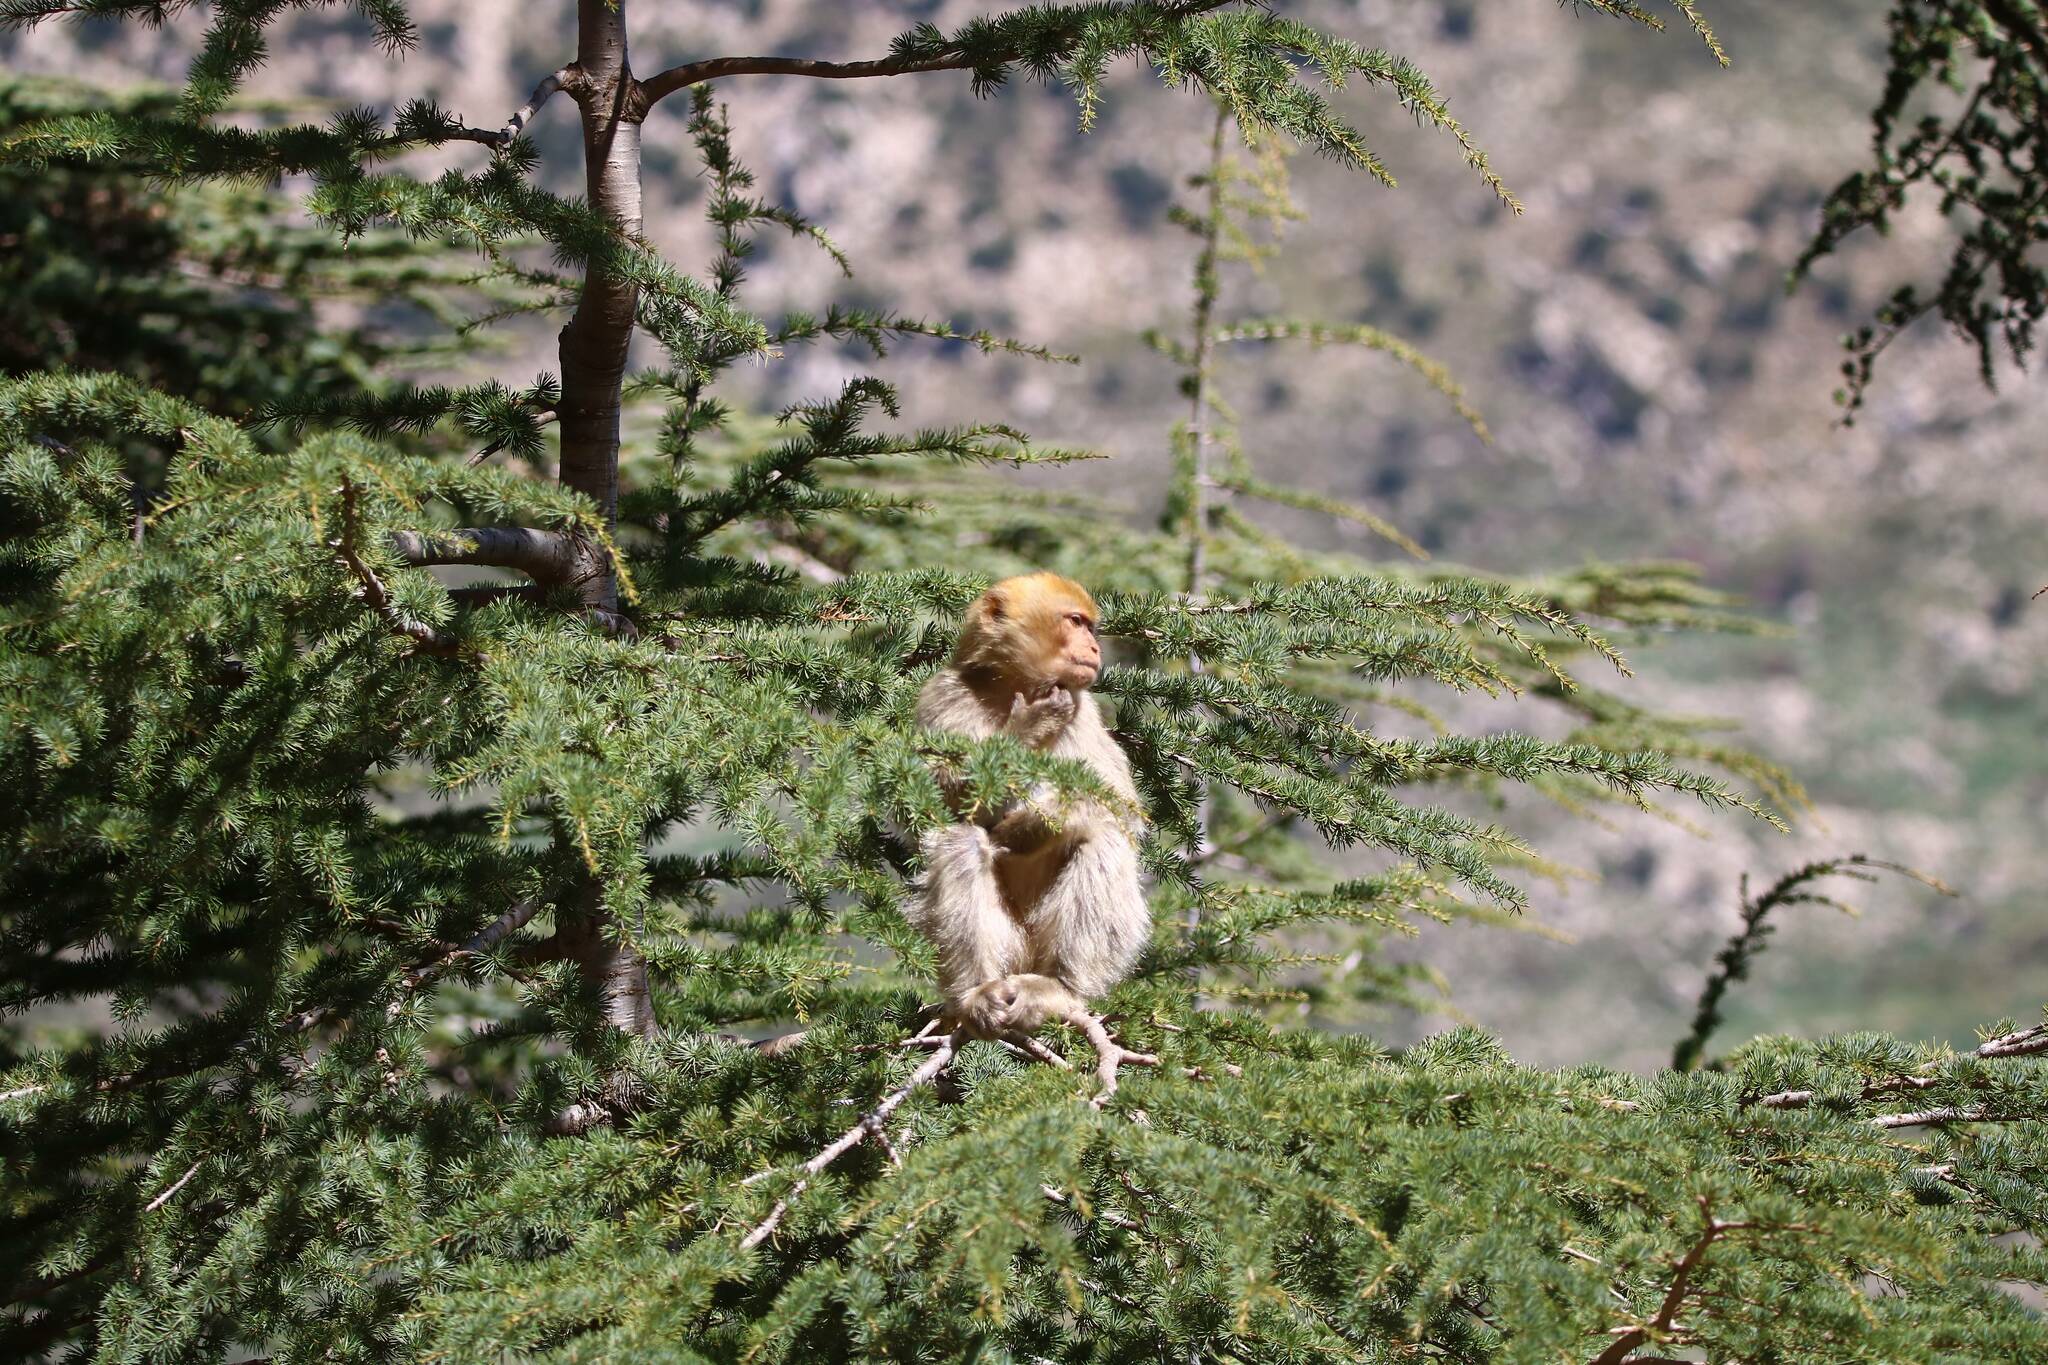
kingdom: Animalia
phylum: Chordata
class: Mammalia
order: Primates
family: Cercopithecidae
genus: Macaca
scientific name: Macaca sylvanus
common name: Barbary macaque
